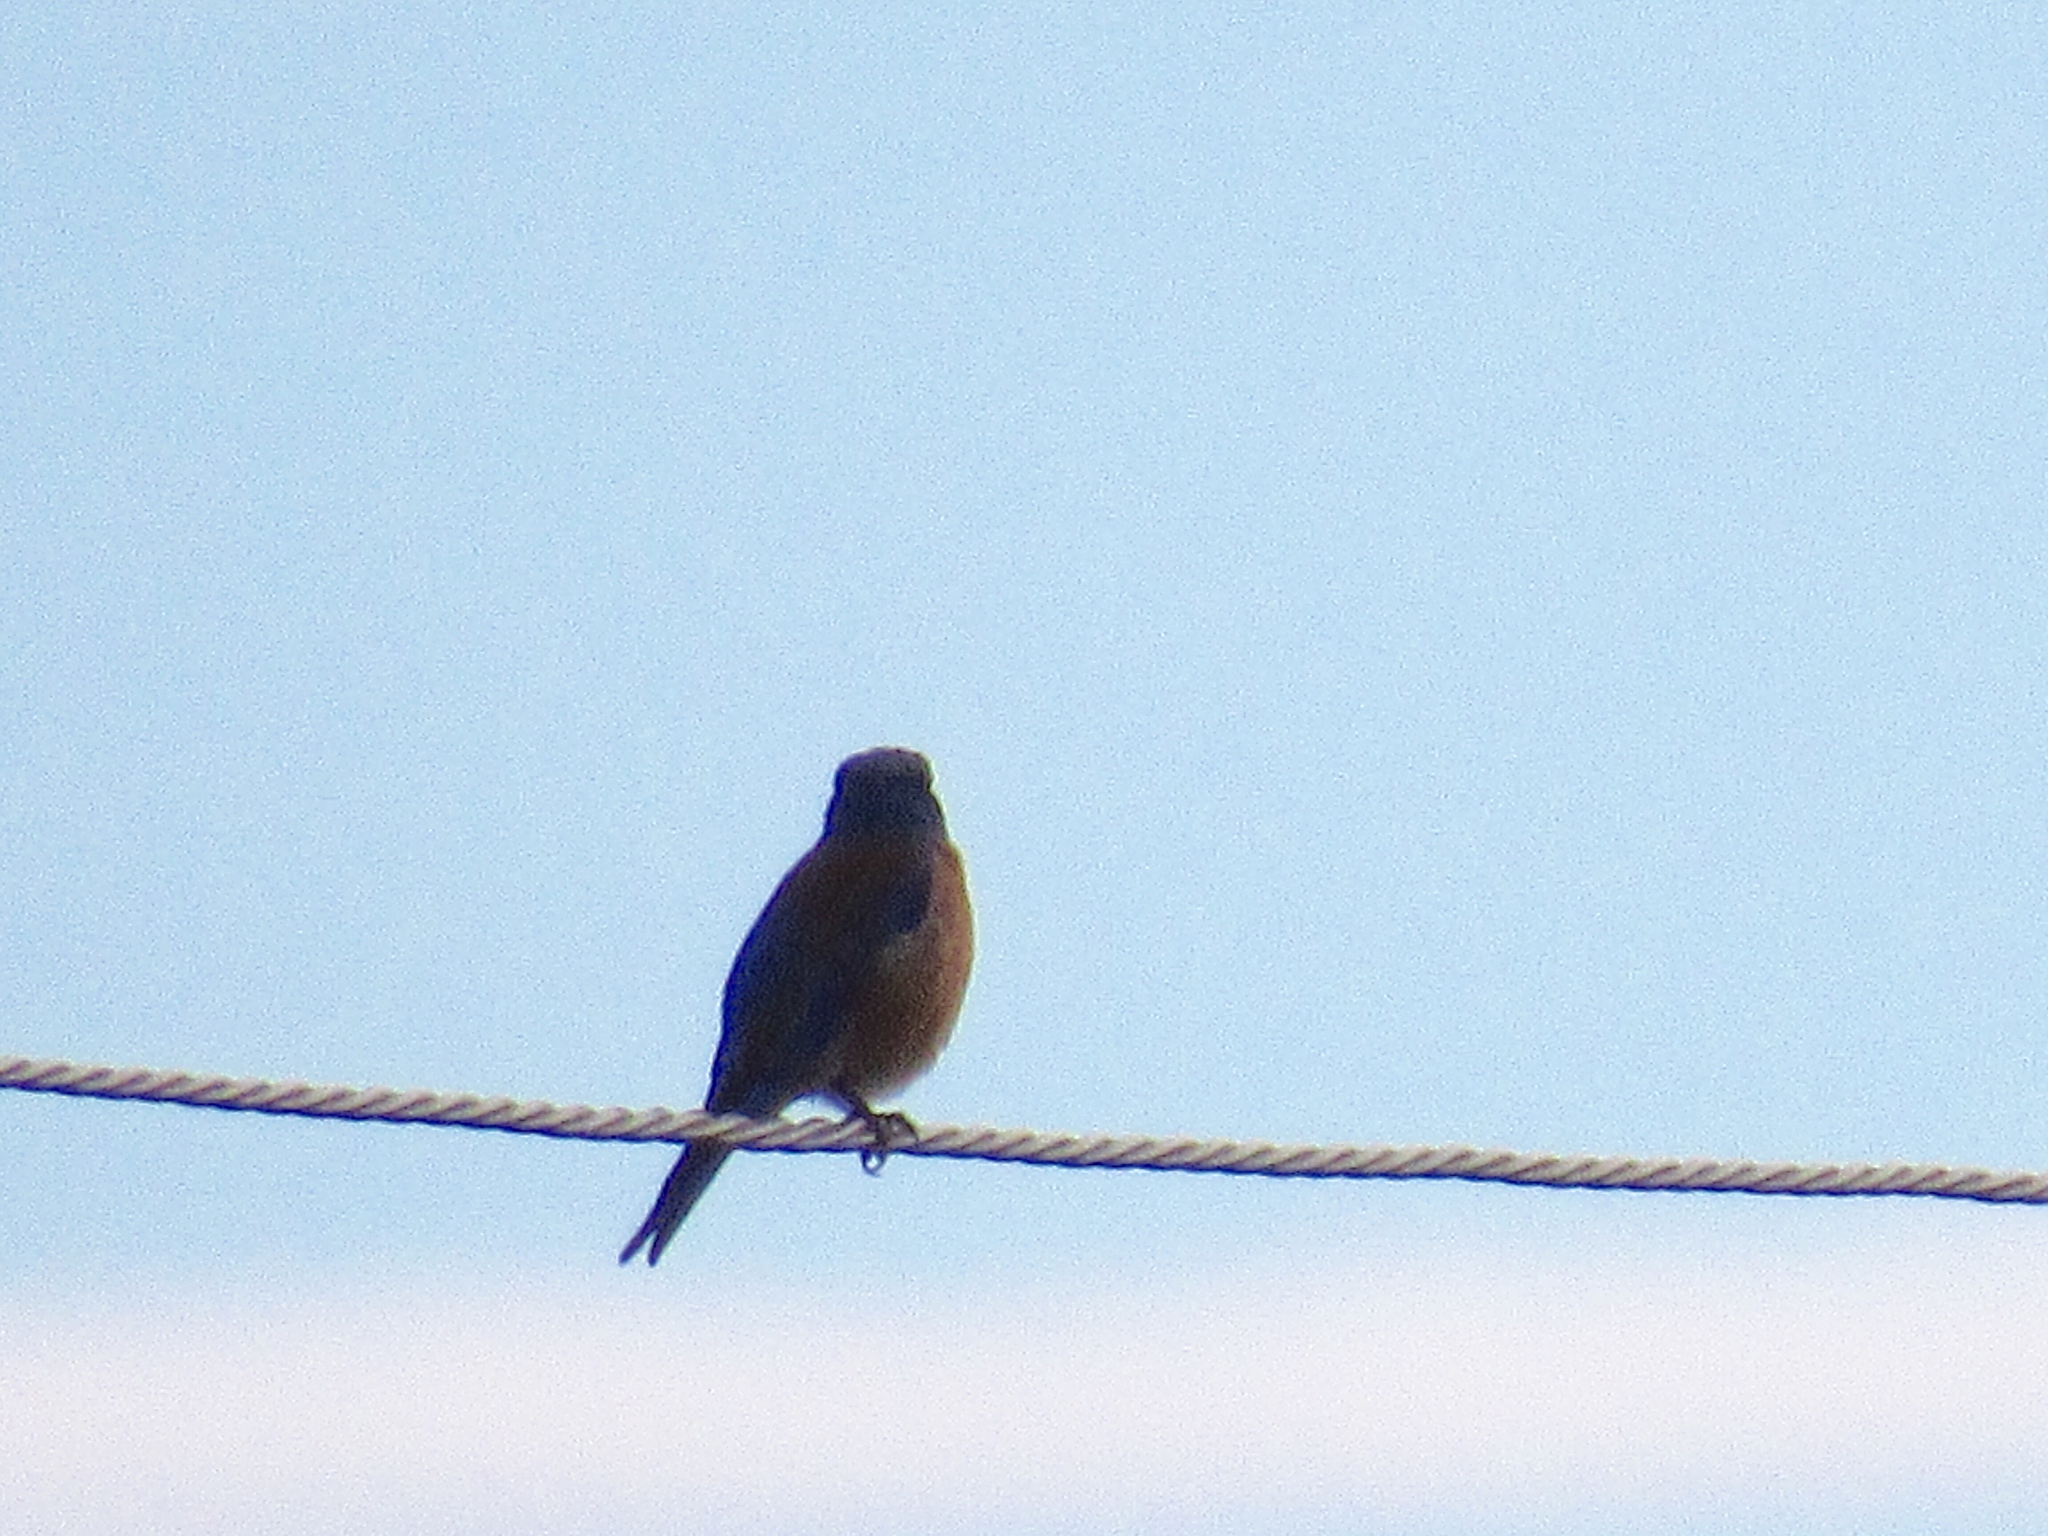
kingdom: Animalia
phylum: Chordata
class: Aves
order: Passeriformes
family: Turdidae
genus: Sialia
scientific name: Sialia mexicana
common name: Western bluebird
